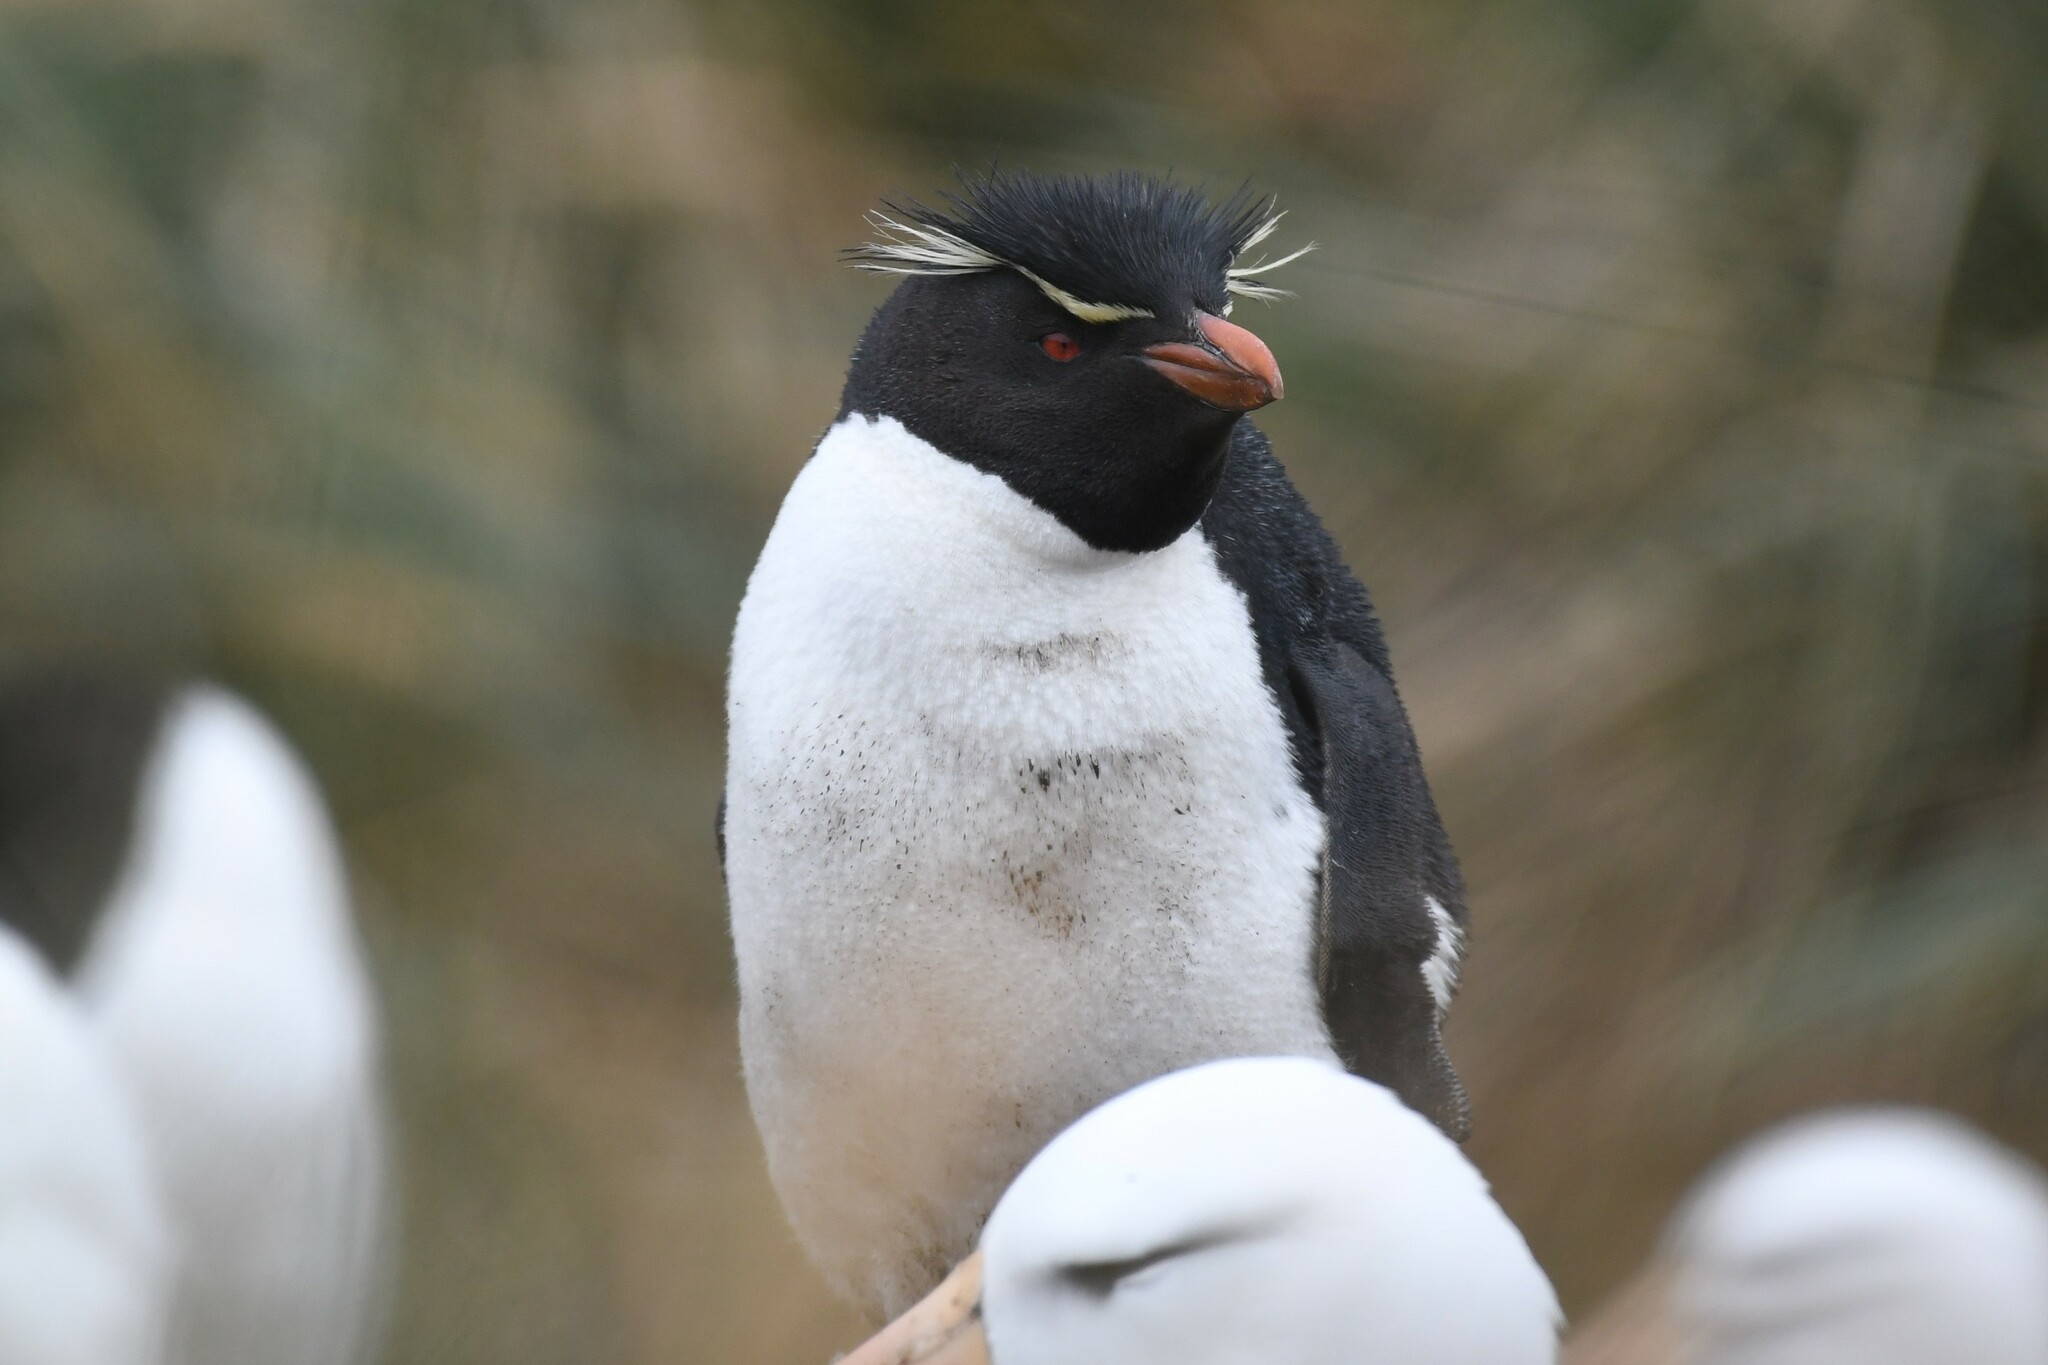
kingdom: Animalia
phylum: Chordata
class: Aves
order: Sphenisciformes
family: Spheniscidae
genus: Eudyptes
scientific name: Eudyptes chrysocome
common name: Southern rockhopper penguin
